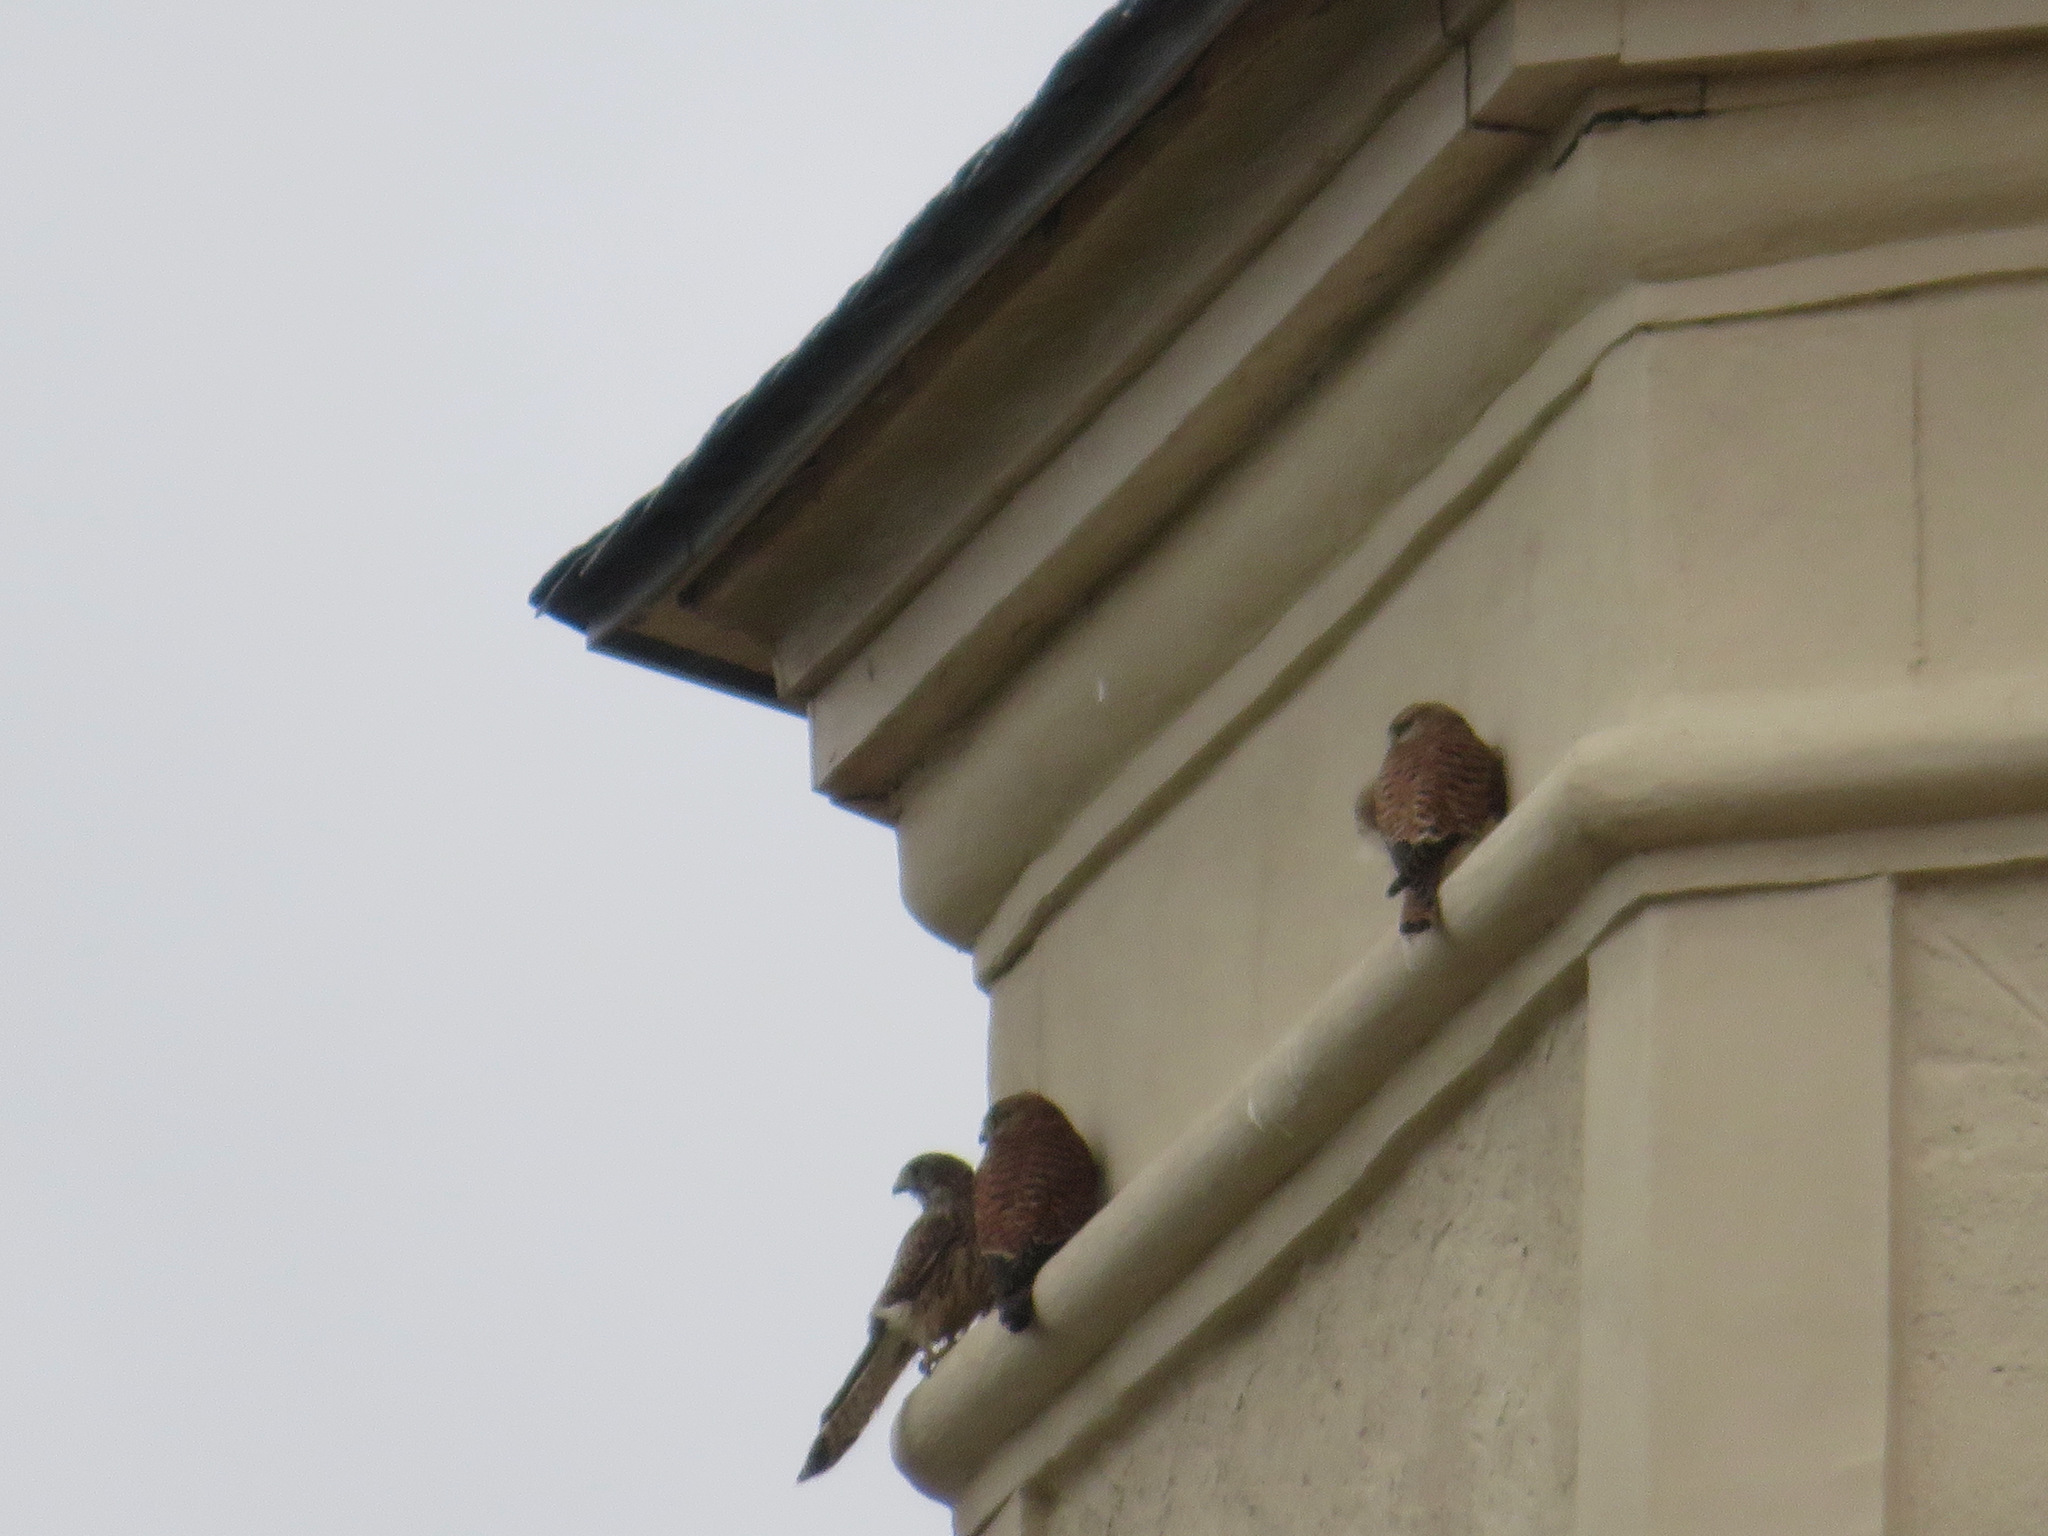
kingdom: Animalia
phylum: Chordata
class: Aves
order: Falconiformes
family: Falconidae
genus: Falco
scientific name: Falco tinnunculus
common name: Common kestrel
